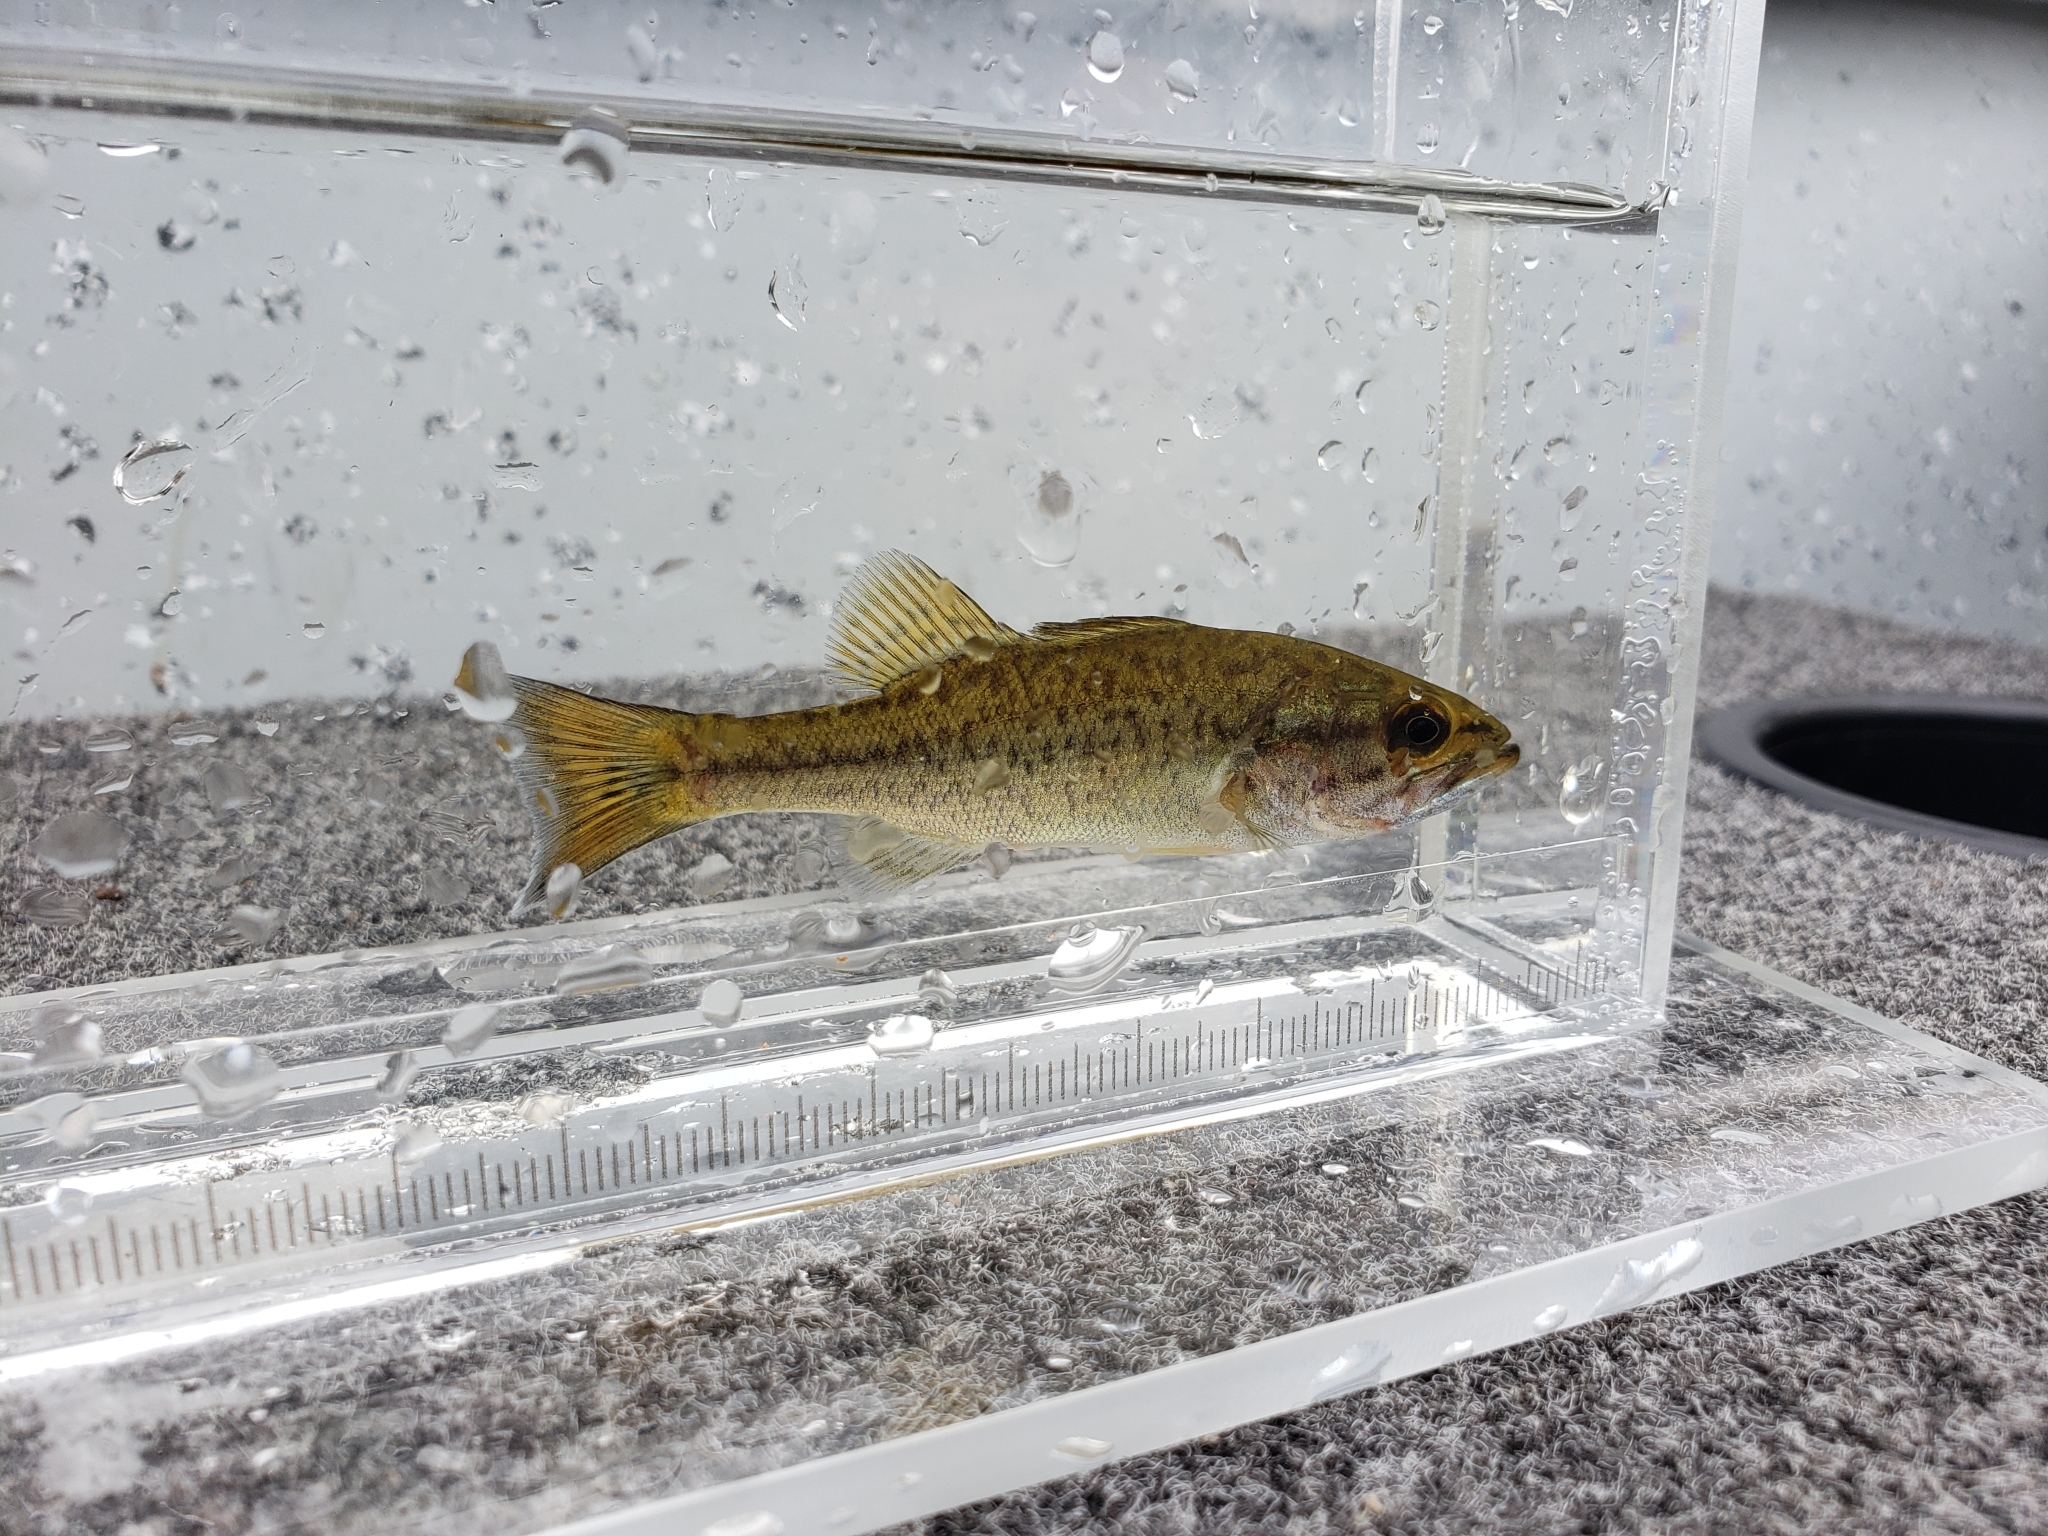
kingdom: Animalia
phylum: Chordata
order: Perciformes
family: Centrarchidae
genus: Micropterus
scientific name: Micropterus
